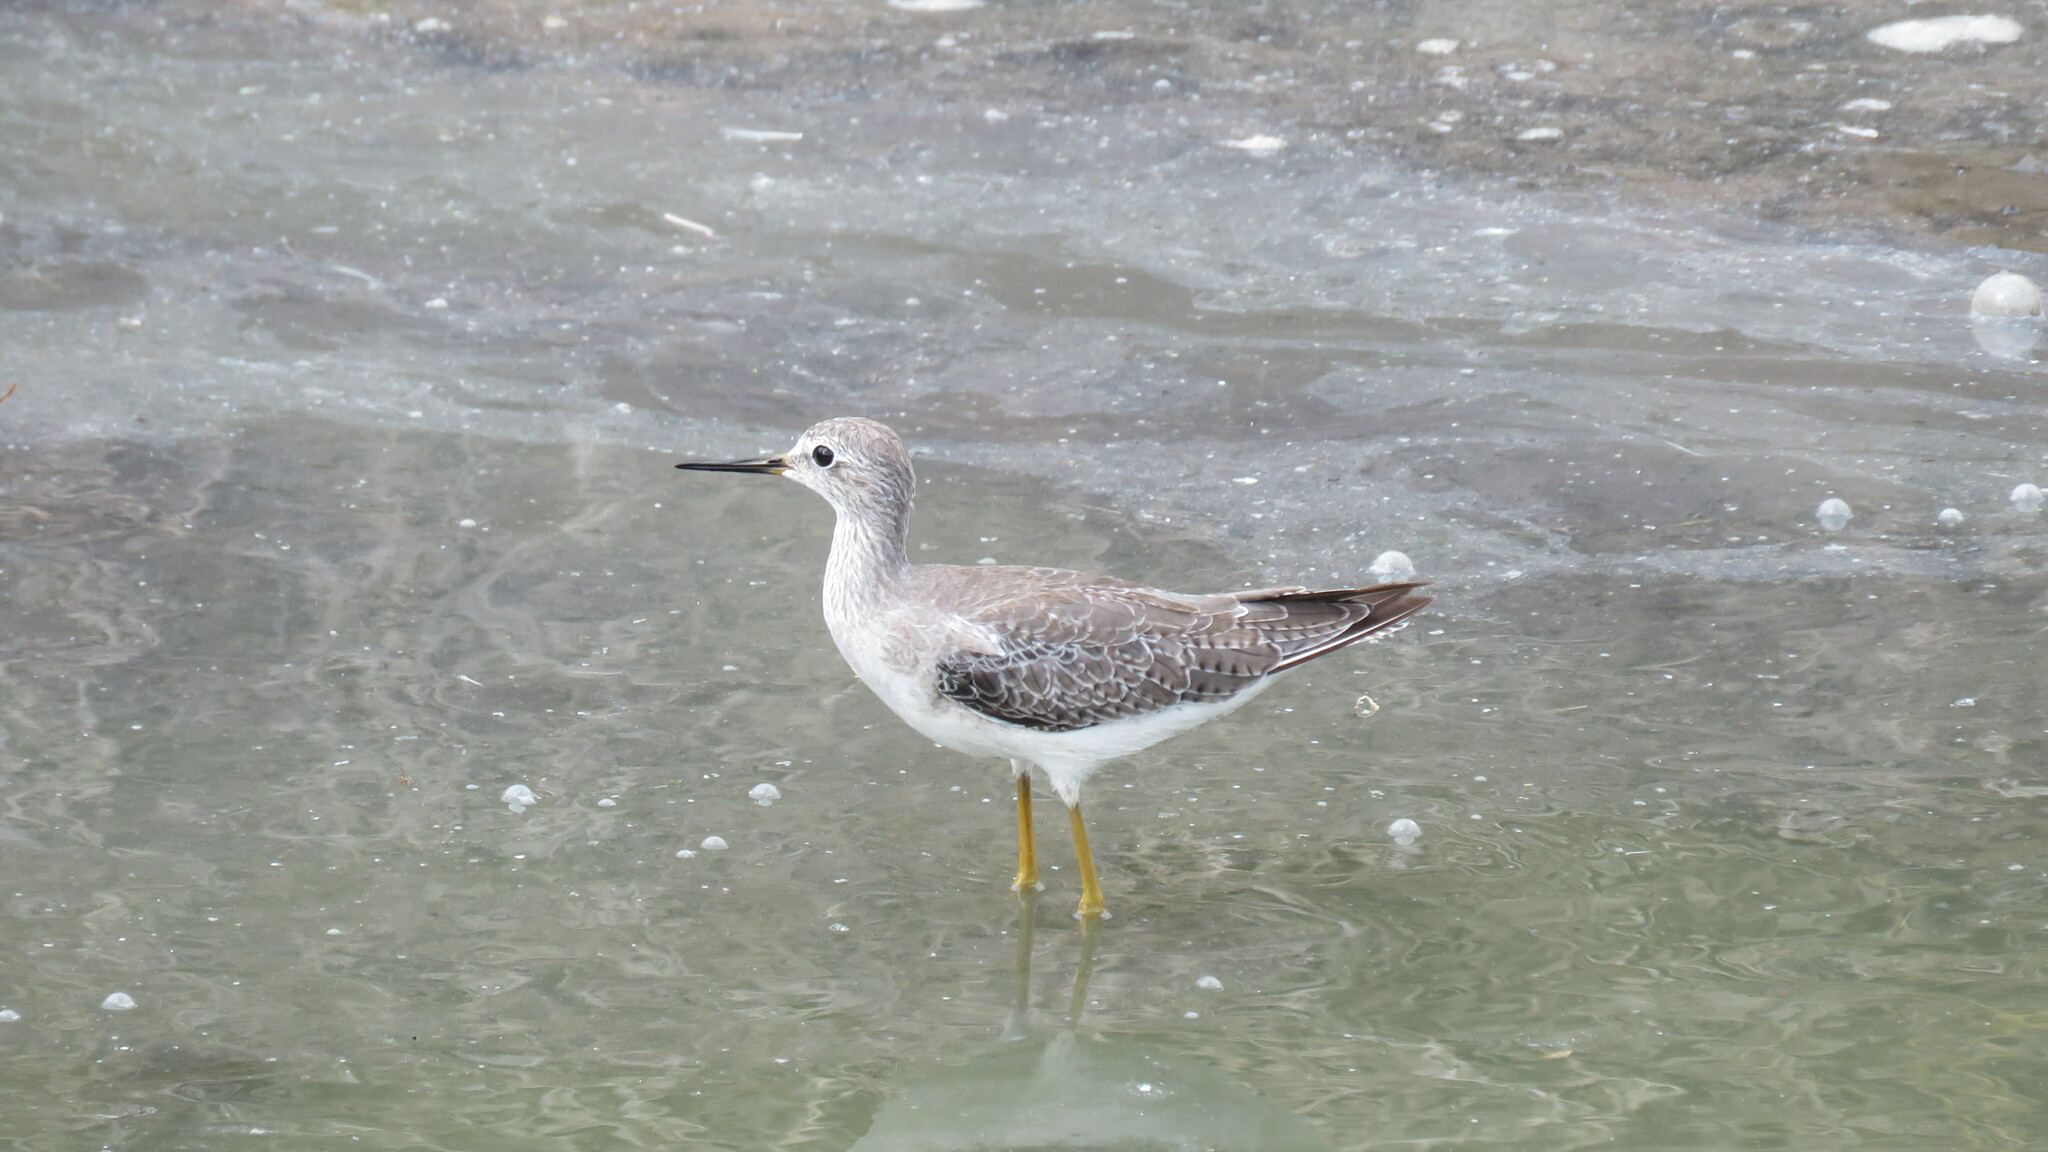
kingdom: Animalia
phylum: Chordata
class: Aves
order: Charadriiformes
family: Scolopacidae
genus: Tringa
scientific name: Tringa flavipes
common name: Lesser yellowlegs
